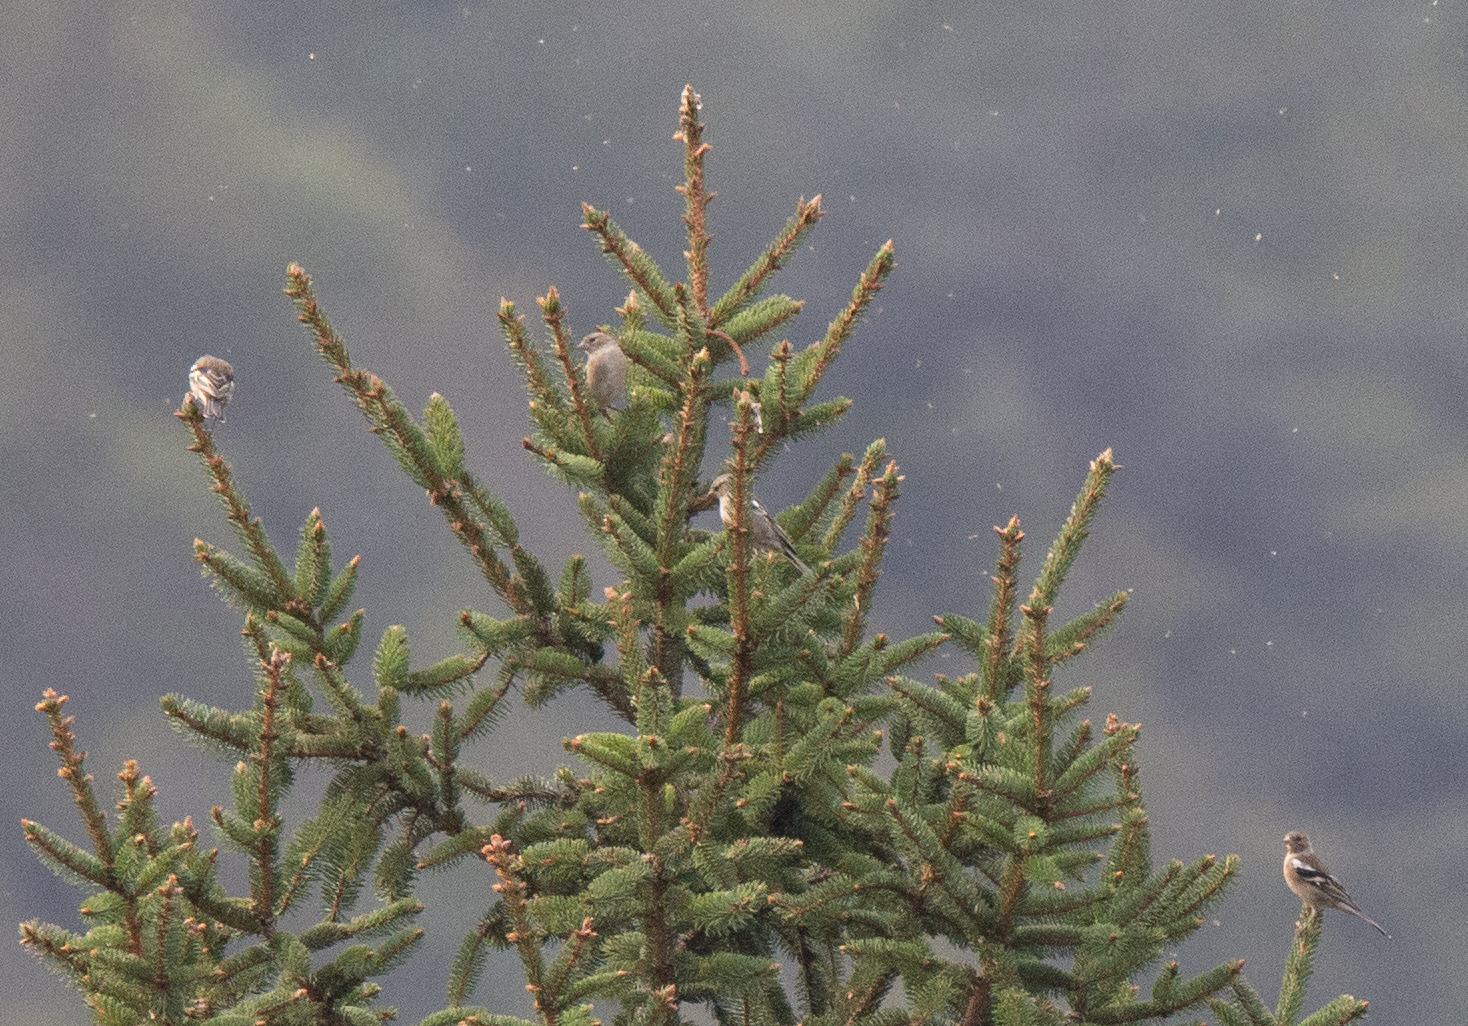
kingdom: Animalia
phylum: Chordata
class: Aves
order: Passeriformes
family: Fringillidae
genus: Fringilla
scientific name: Fringilla coelebs
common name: Common chaffinch
